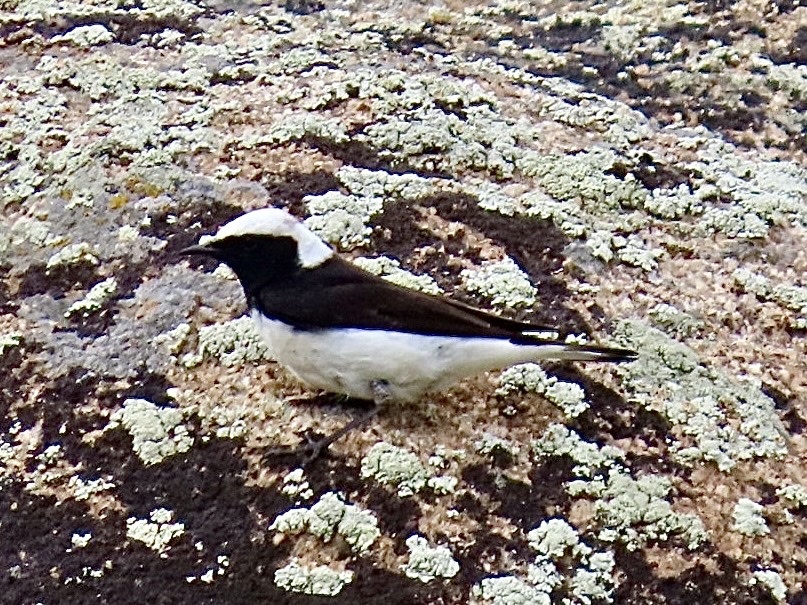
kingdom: Animalia
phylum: Chordata
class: Aves
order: Passeriformes
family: Muscicapidae
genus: Oenanthe
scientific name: Oenanthe pleschanka
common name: Pied wheatear
